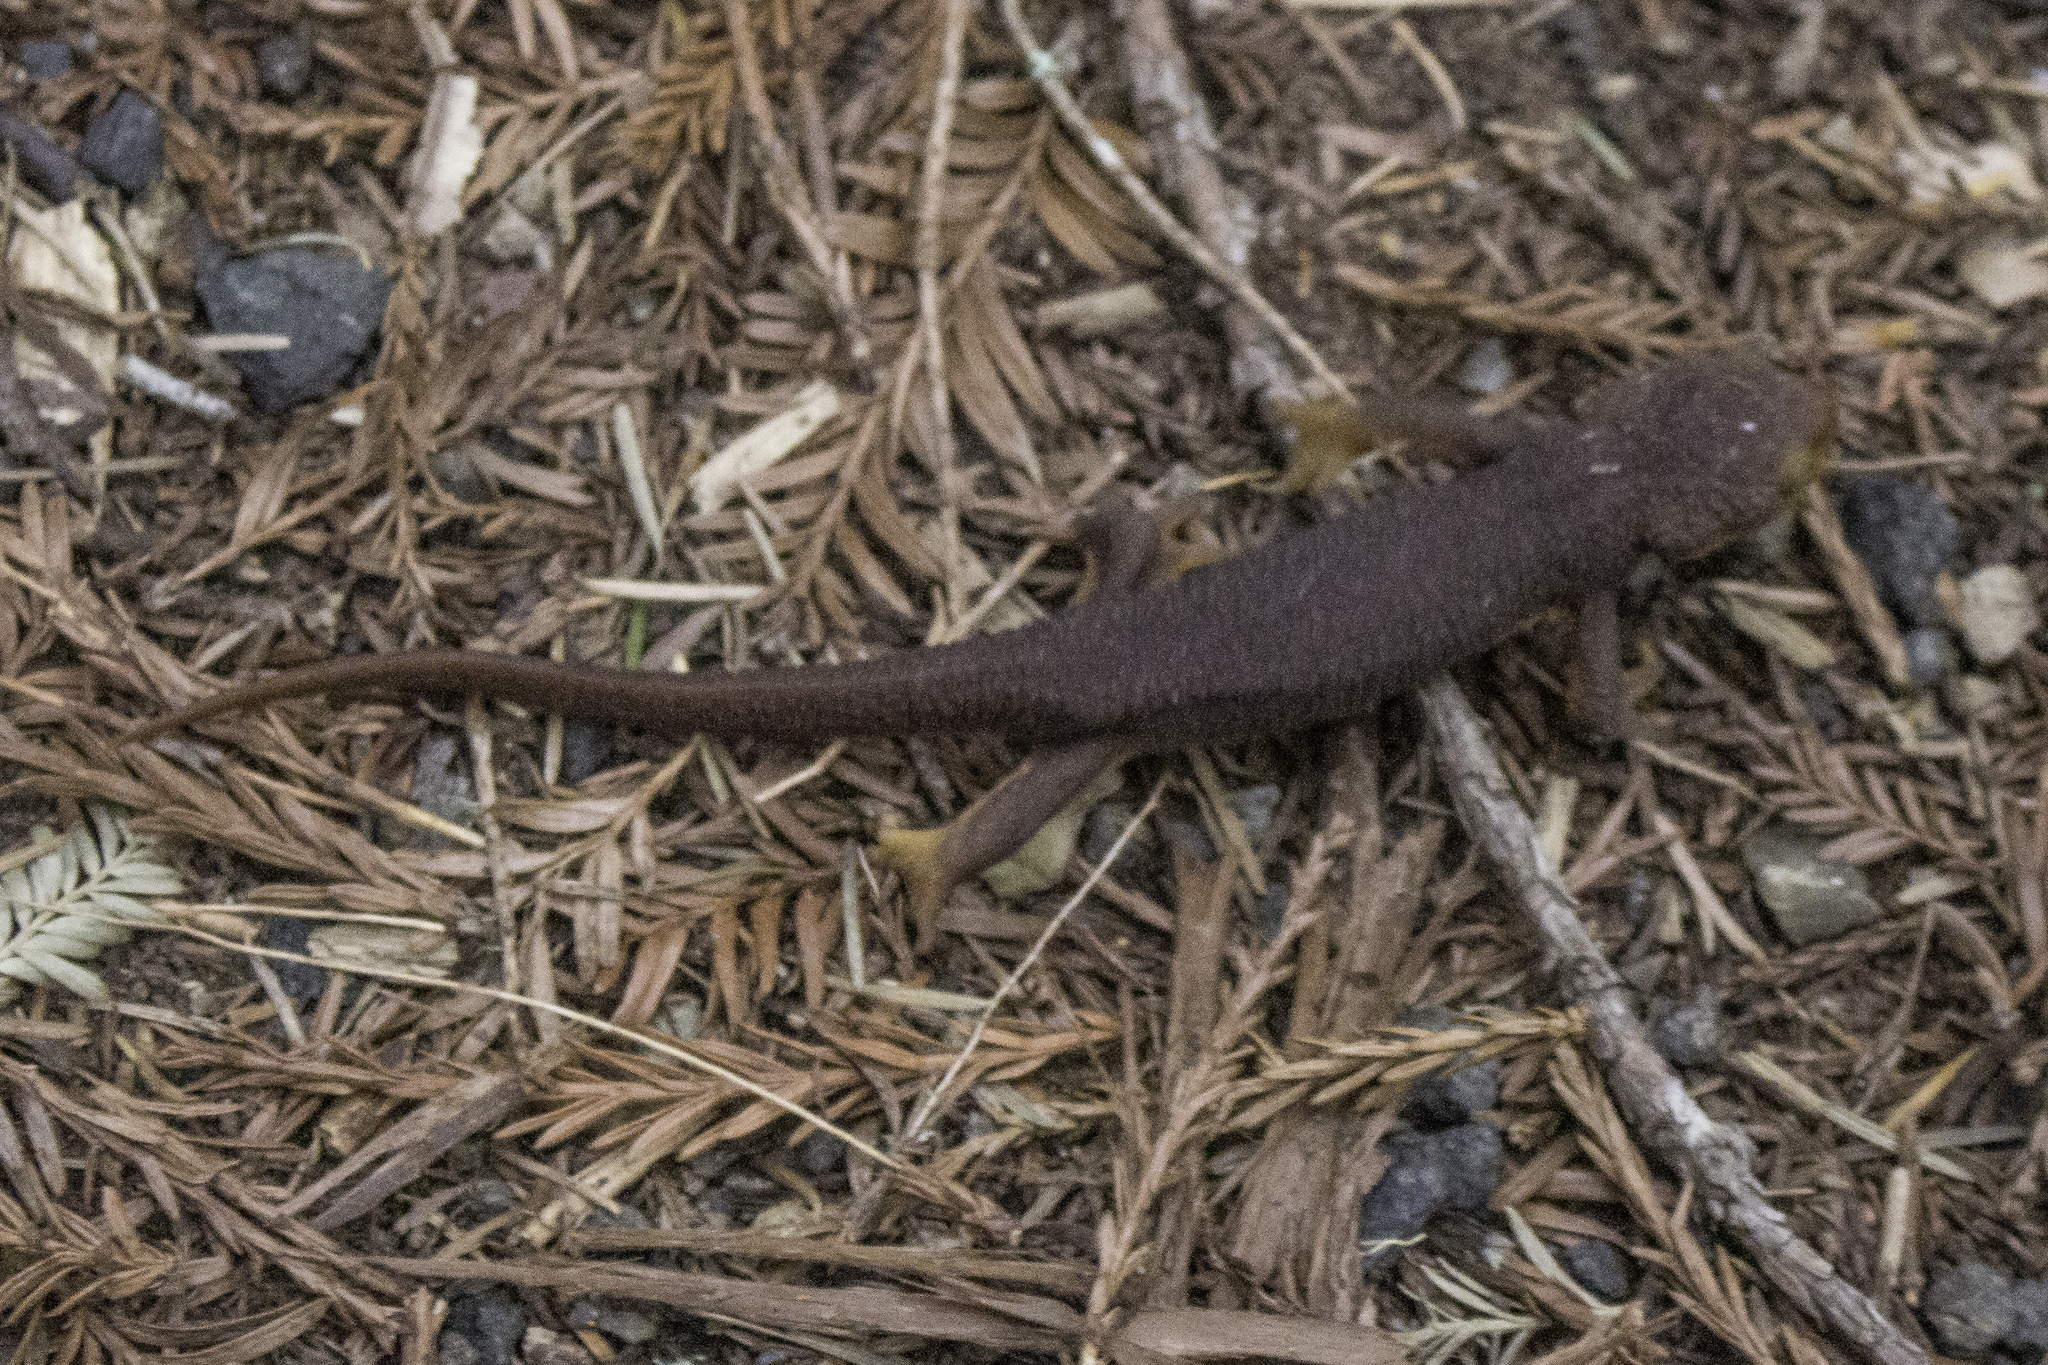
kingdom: Animalia
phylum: Chordata
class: Amphibia
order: Caudata
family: Salamandridae
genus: Taricha
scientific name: Taricha torosa
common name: California newt
